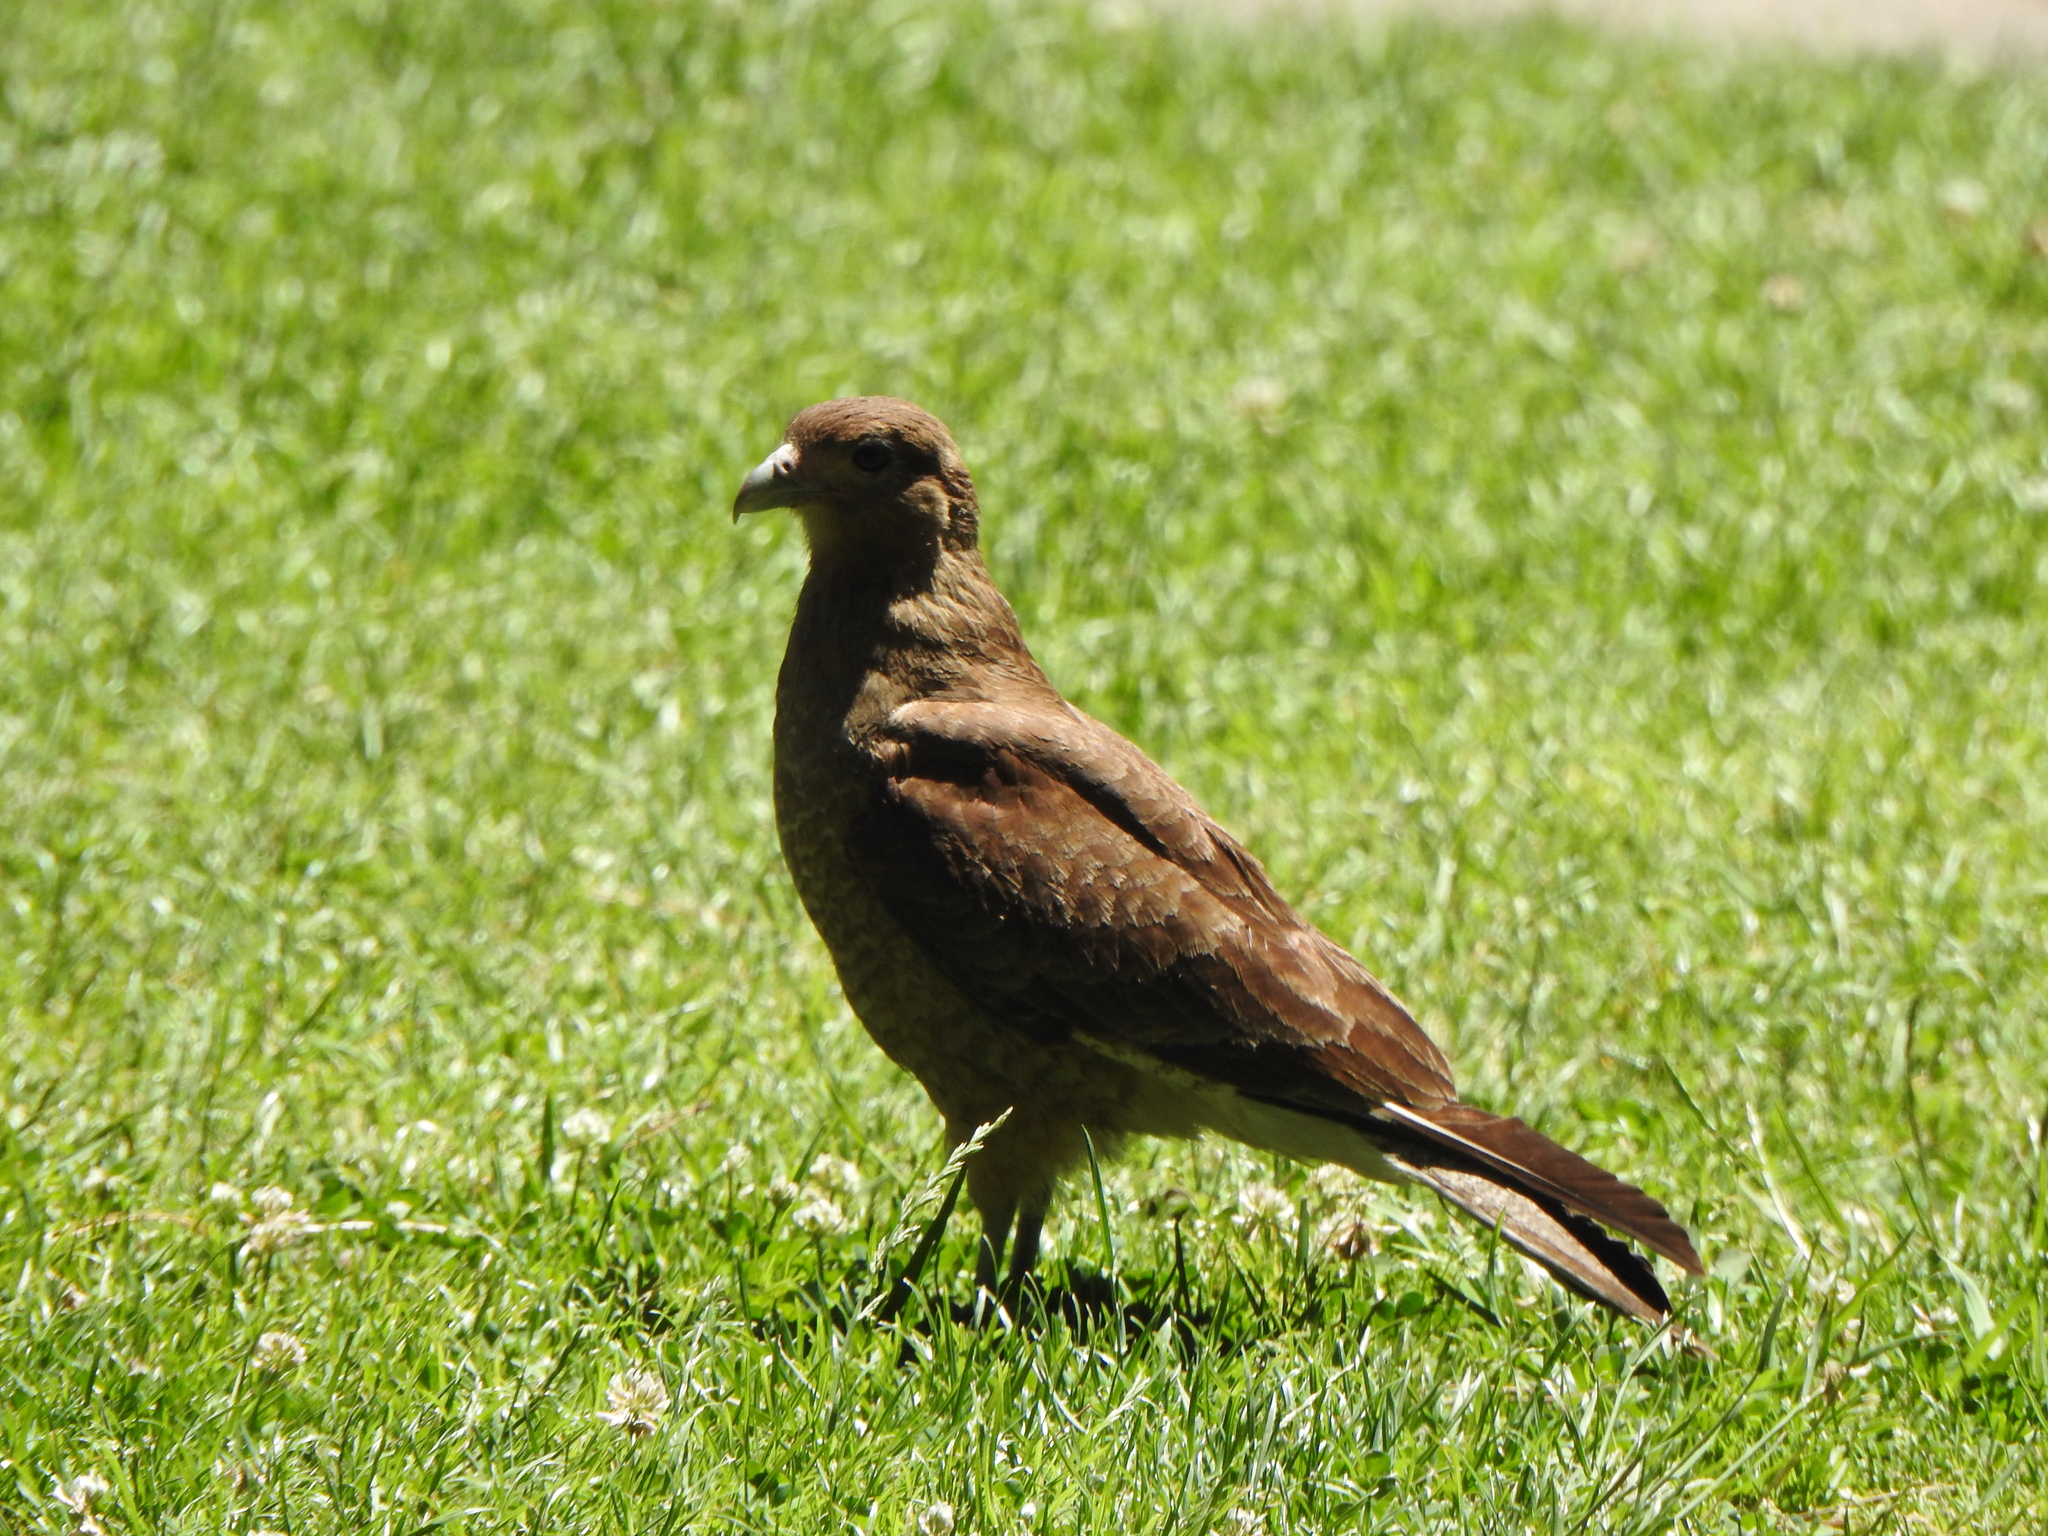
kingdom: Animalia
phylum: Chordata
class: Aves
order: Falconiformes
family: Falconidae
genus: Daptrius
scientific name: Daptrius
